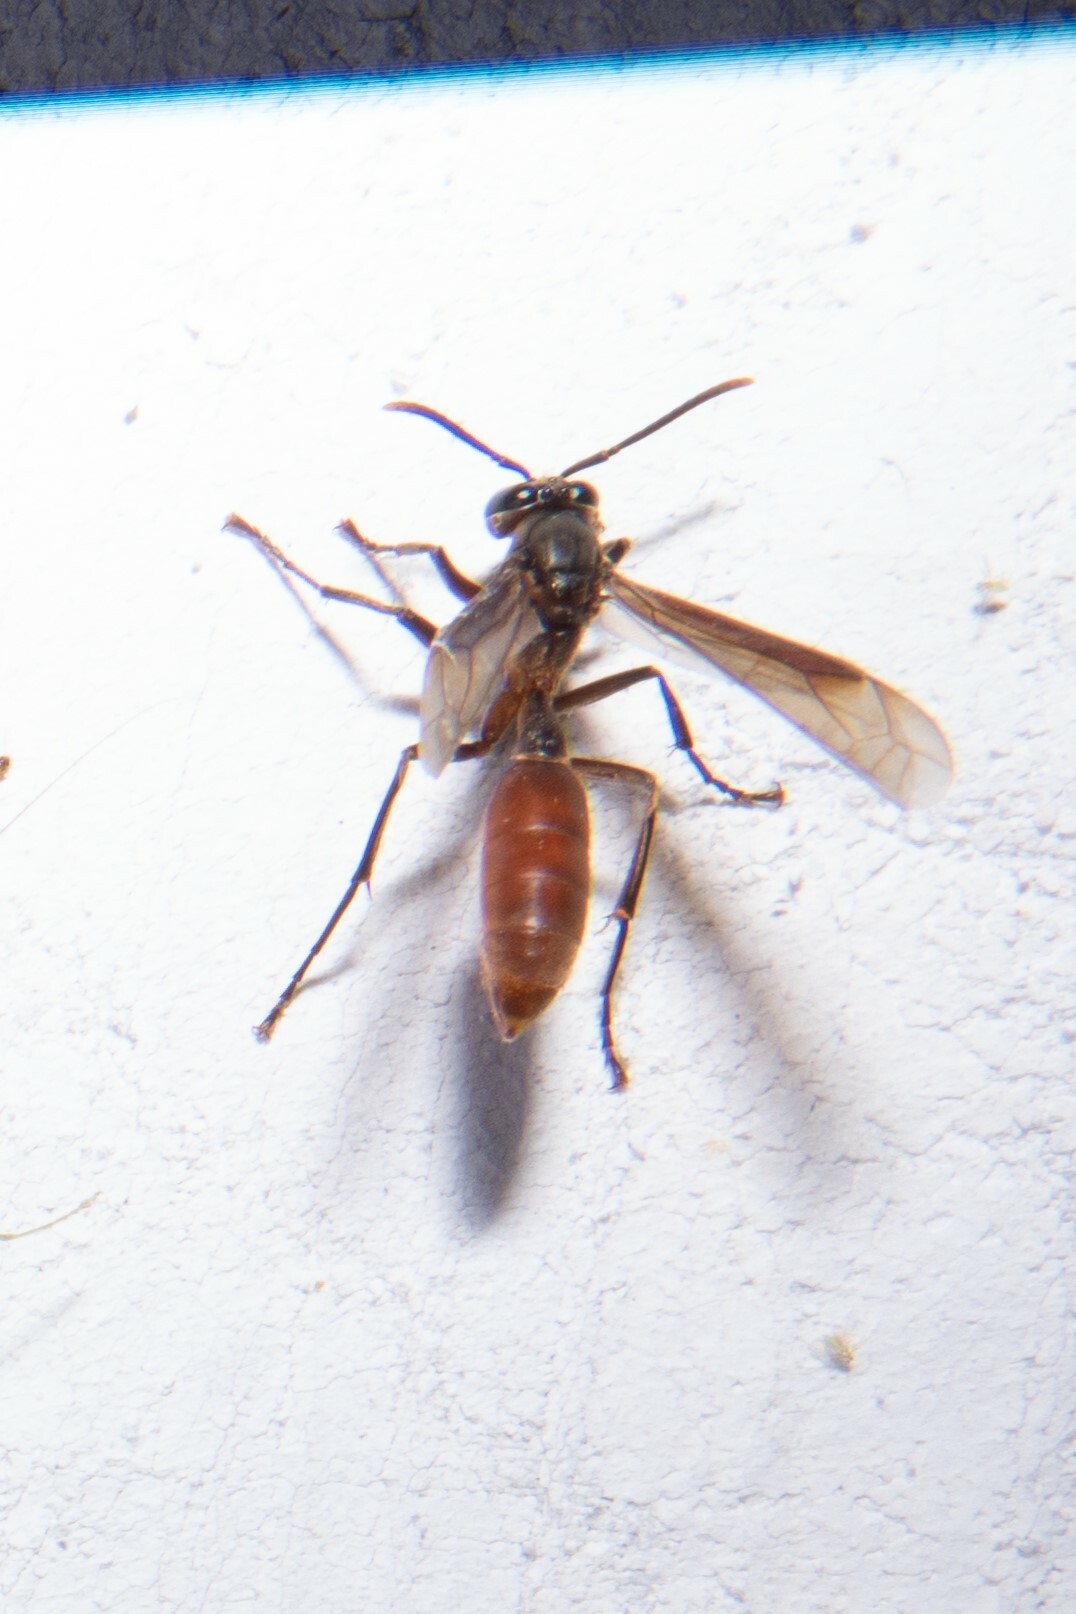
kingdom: Animalia
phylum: Arthropoda
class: Insecta
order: Hymenoptera
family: Vespidae
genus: Apoica
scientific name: Apoica thoracica
